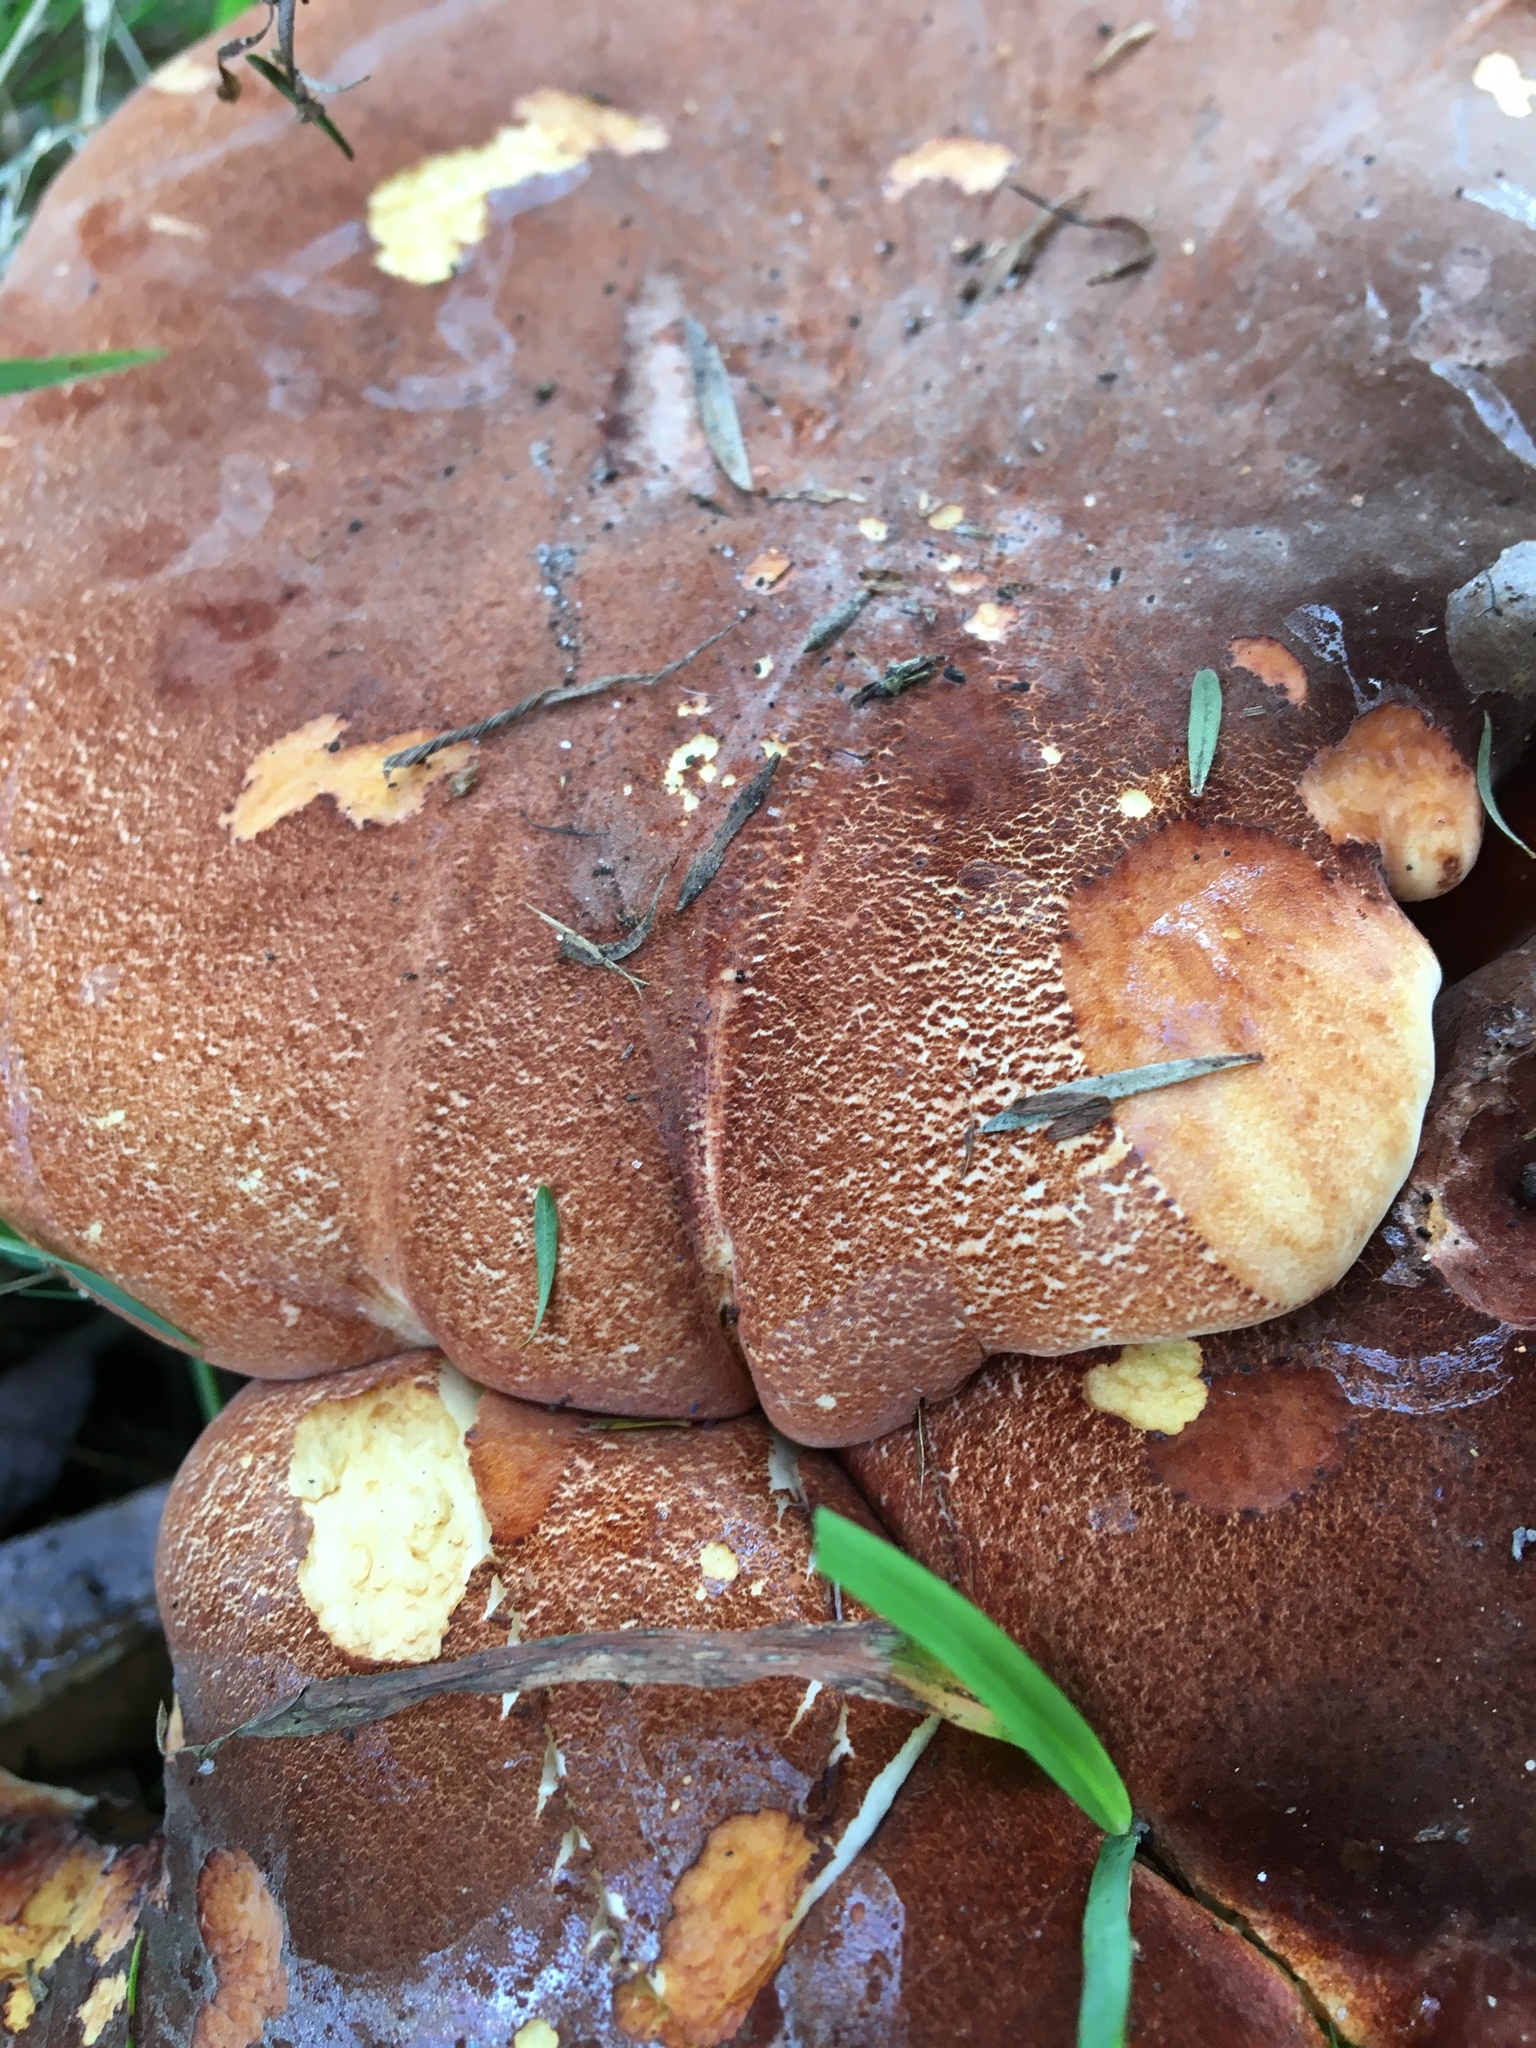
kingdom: Fungi
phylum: Basidiomycota
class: Agaricomycetes
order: Polyporales
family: Fomitopsidaceae
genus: Fomitopsis
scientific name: Fomitopsis
